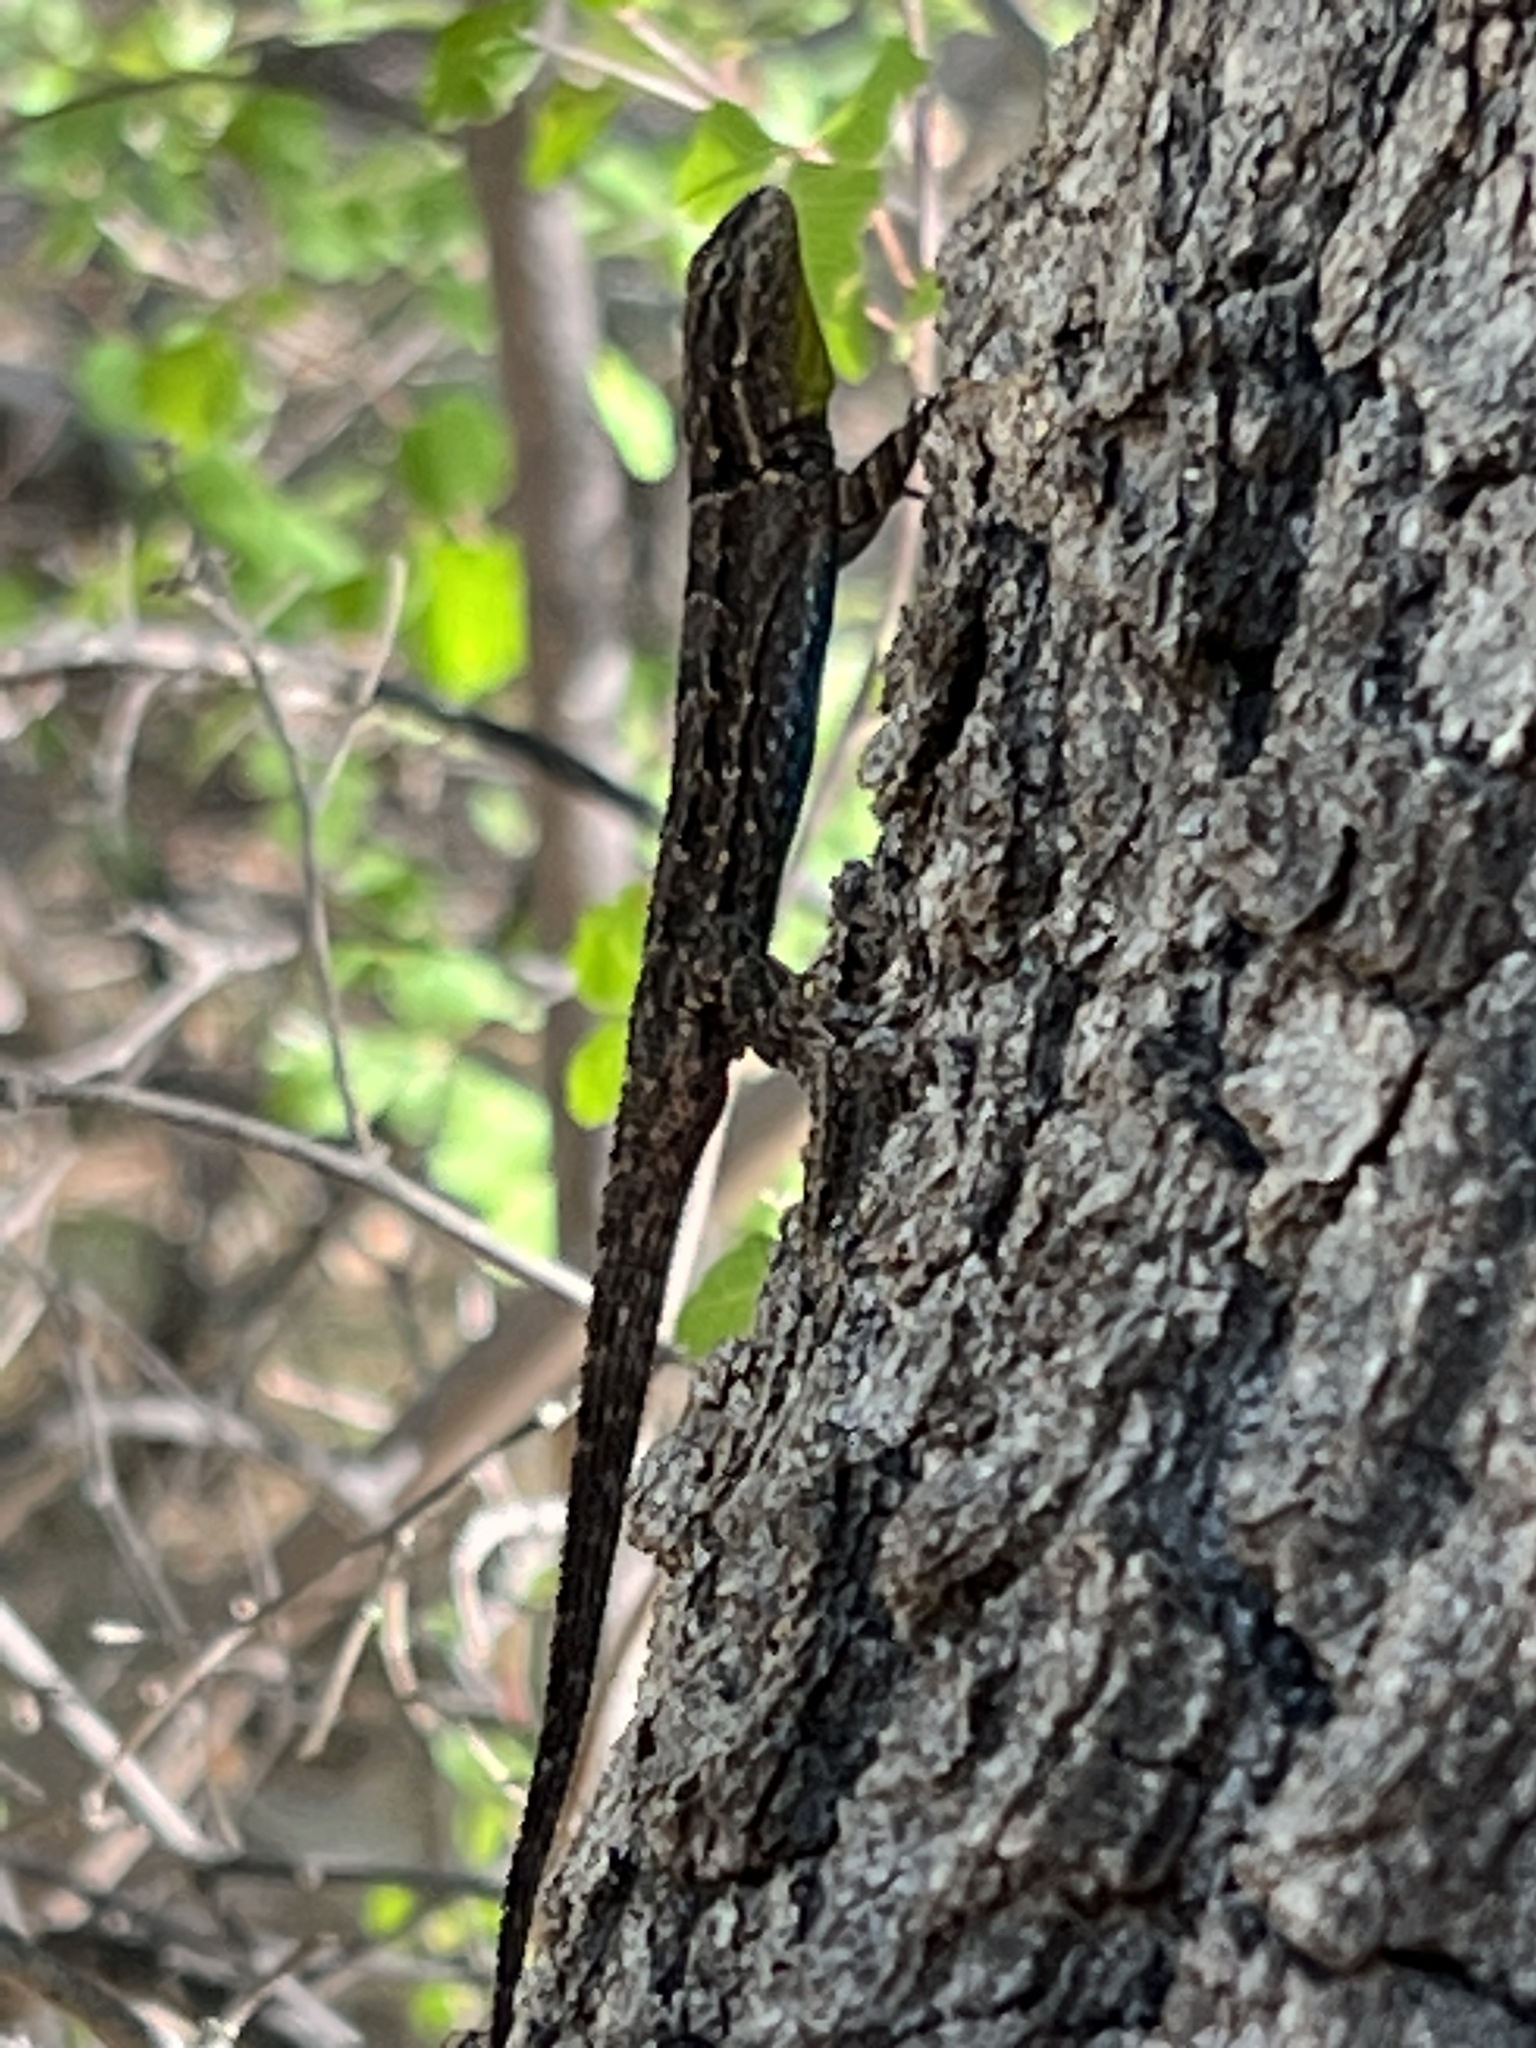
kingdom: Animalia
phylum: Chordata
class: Squamata
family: Phrynosomatidae
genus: Urosaurus
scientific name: Urosaurus ornatus
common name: Ornate tree lizard
